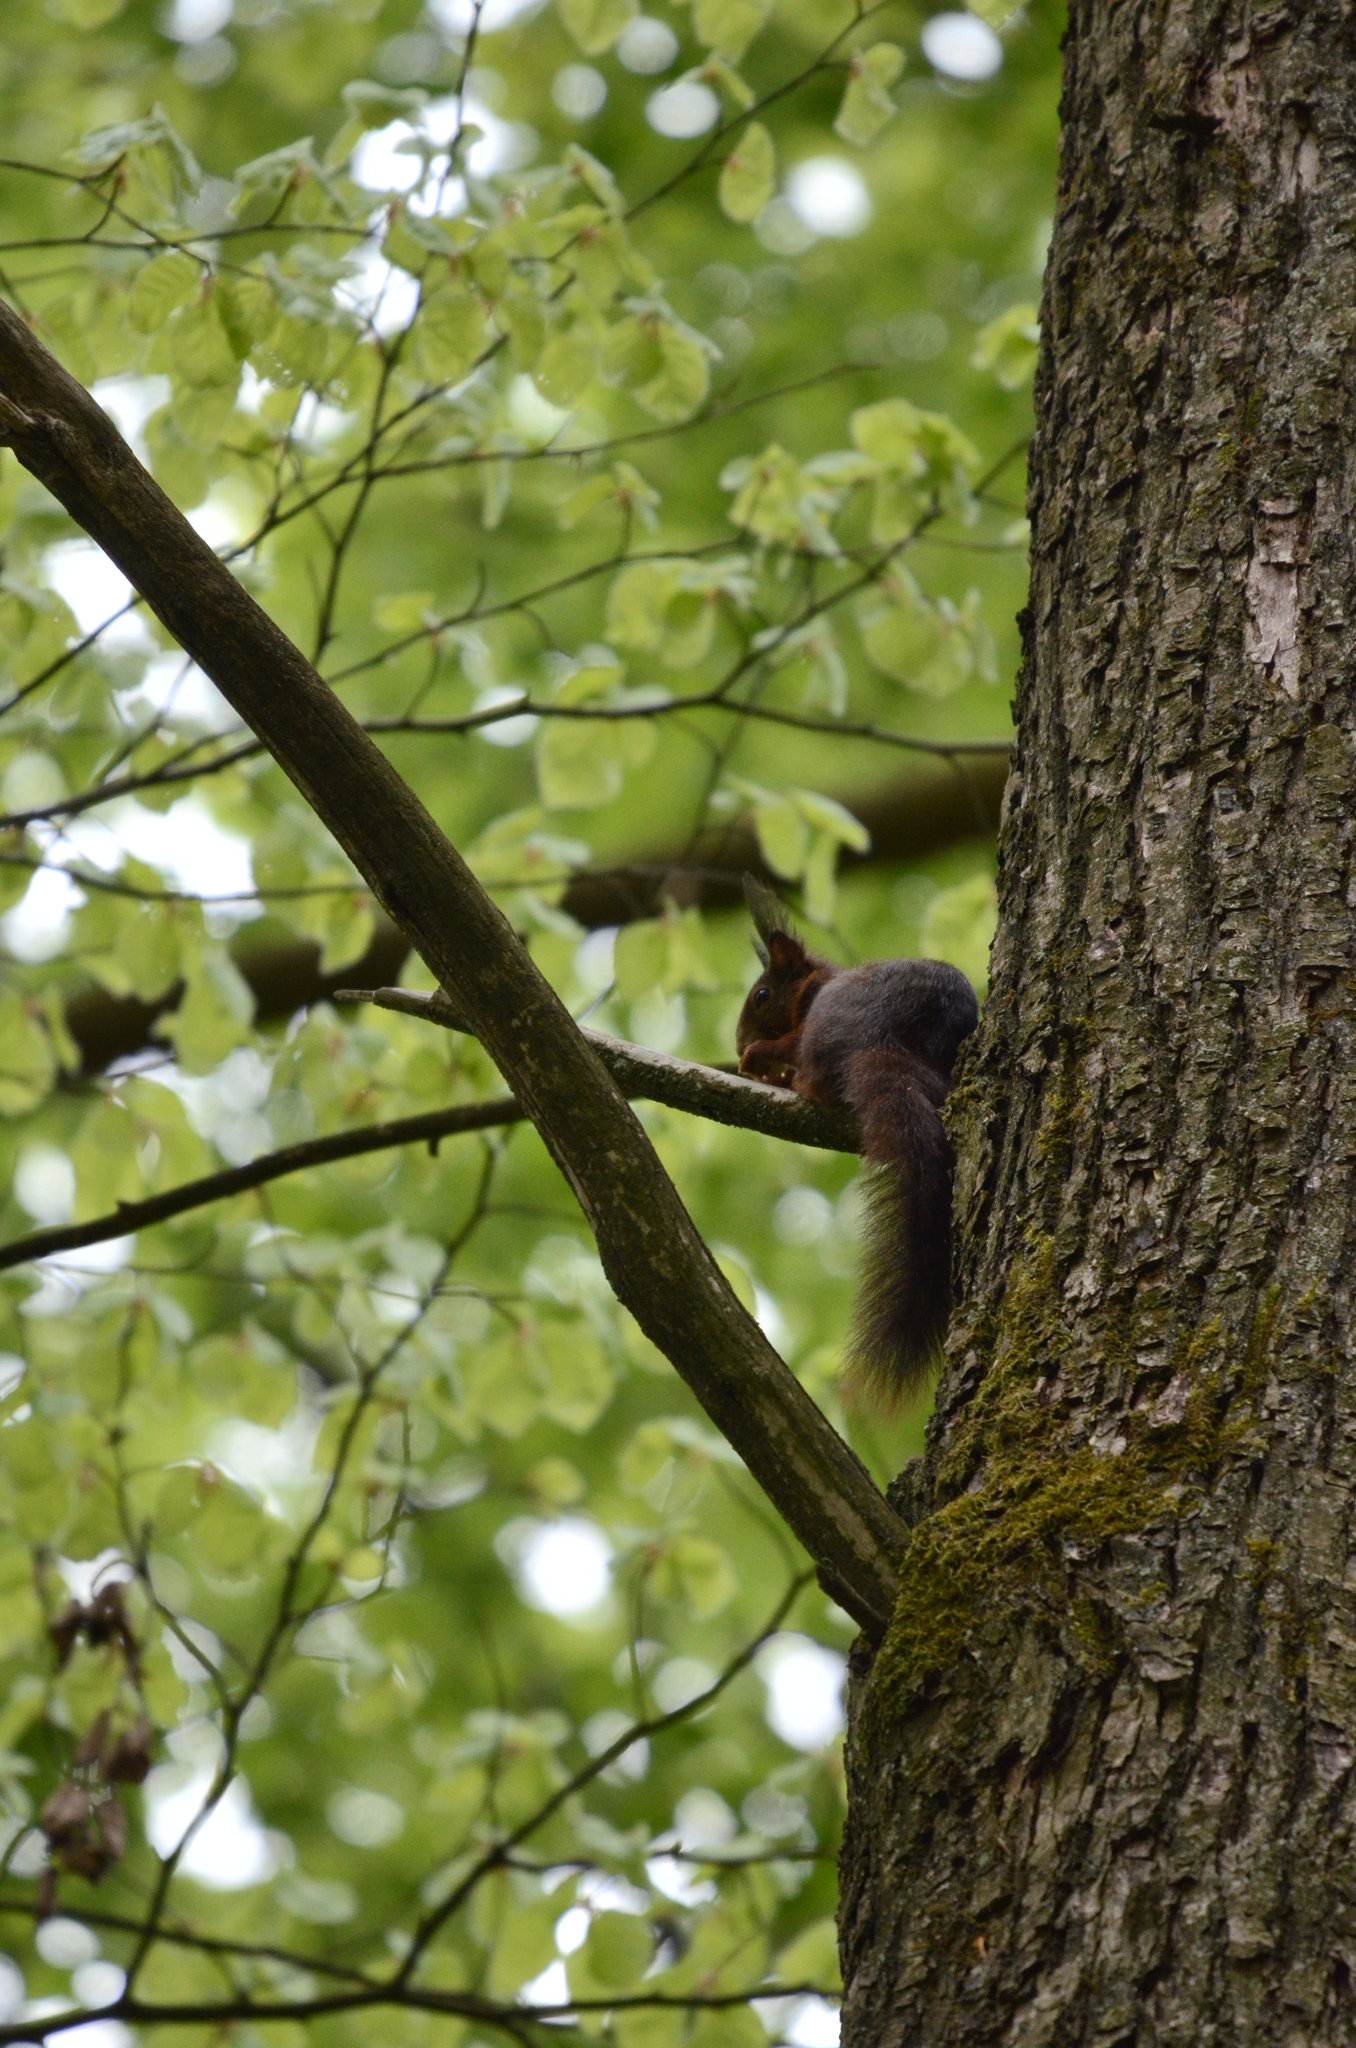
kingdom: Animalia
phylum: Chordata
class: Mammalia
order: Rodentia
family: Sciuridae
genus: Sciurus
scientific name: Sciurus vulgaris
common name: Eurasian red squirrel
